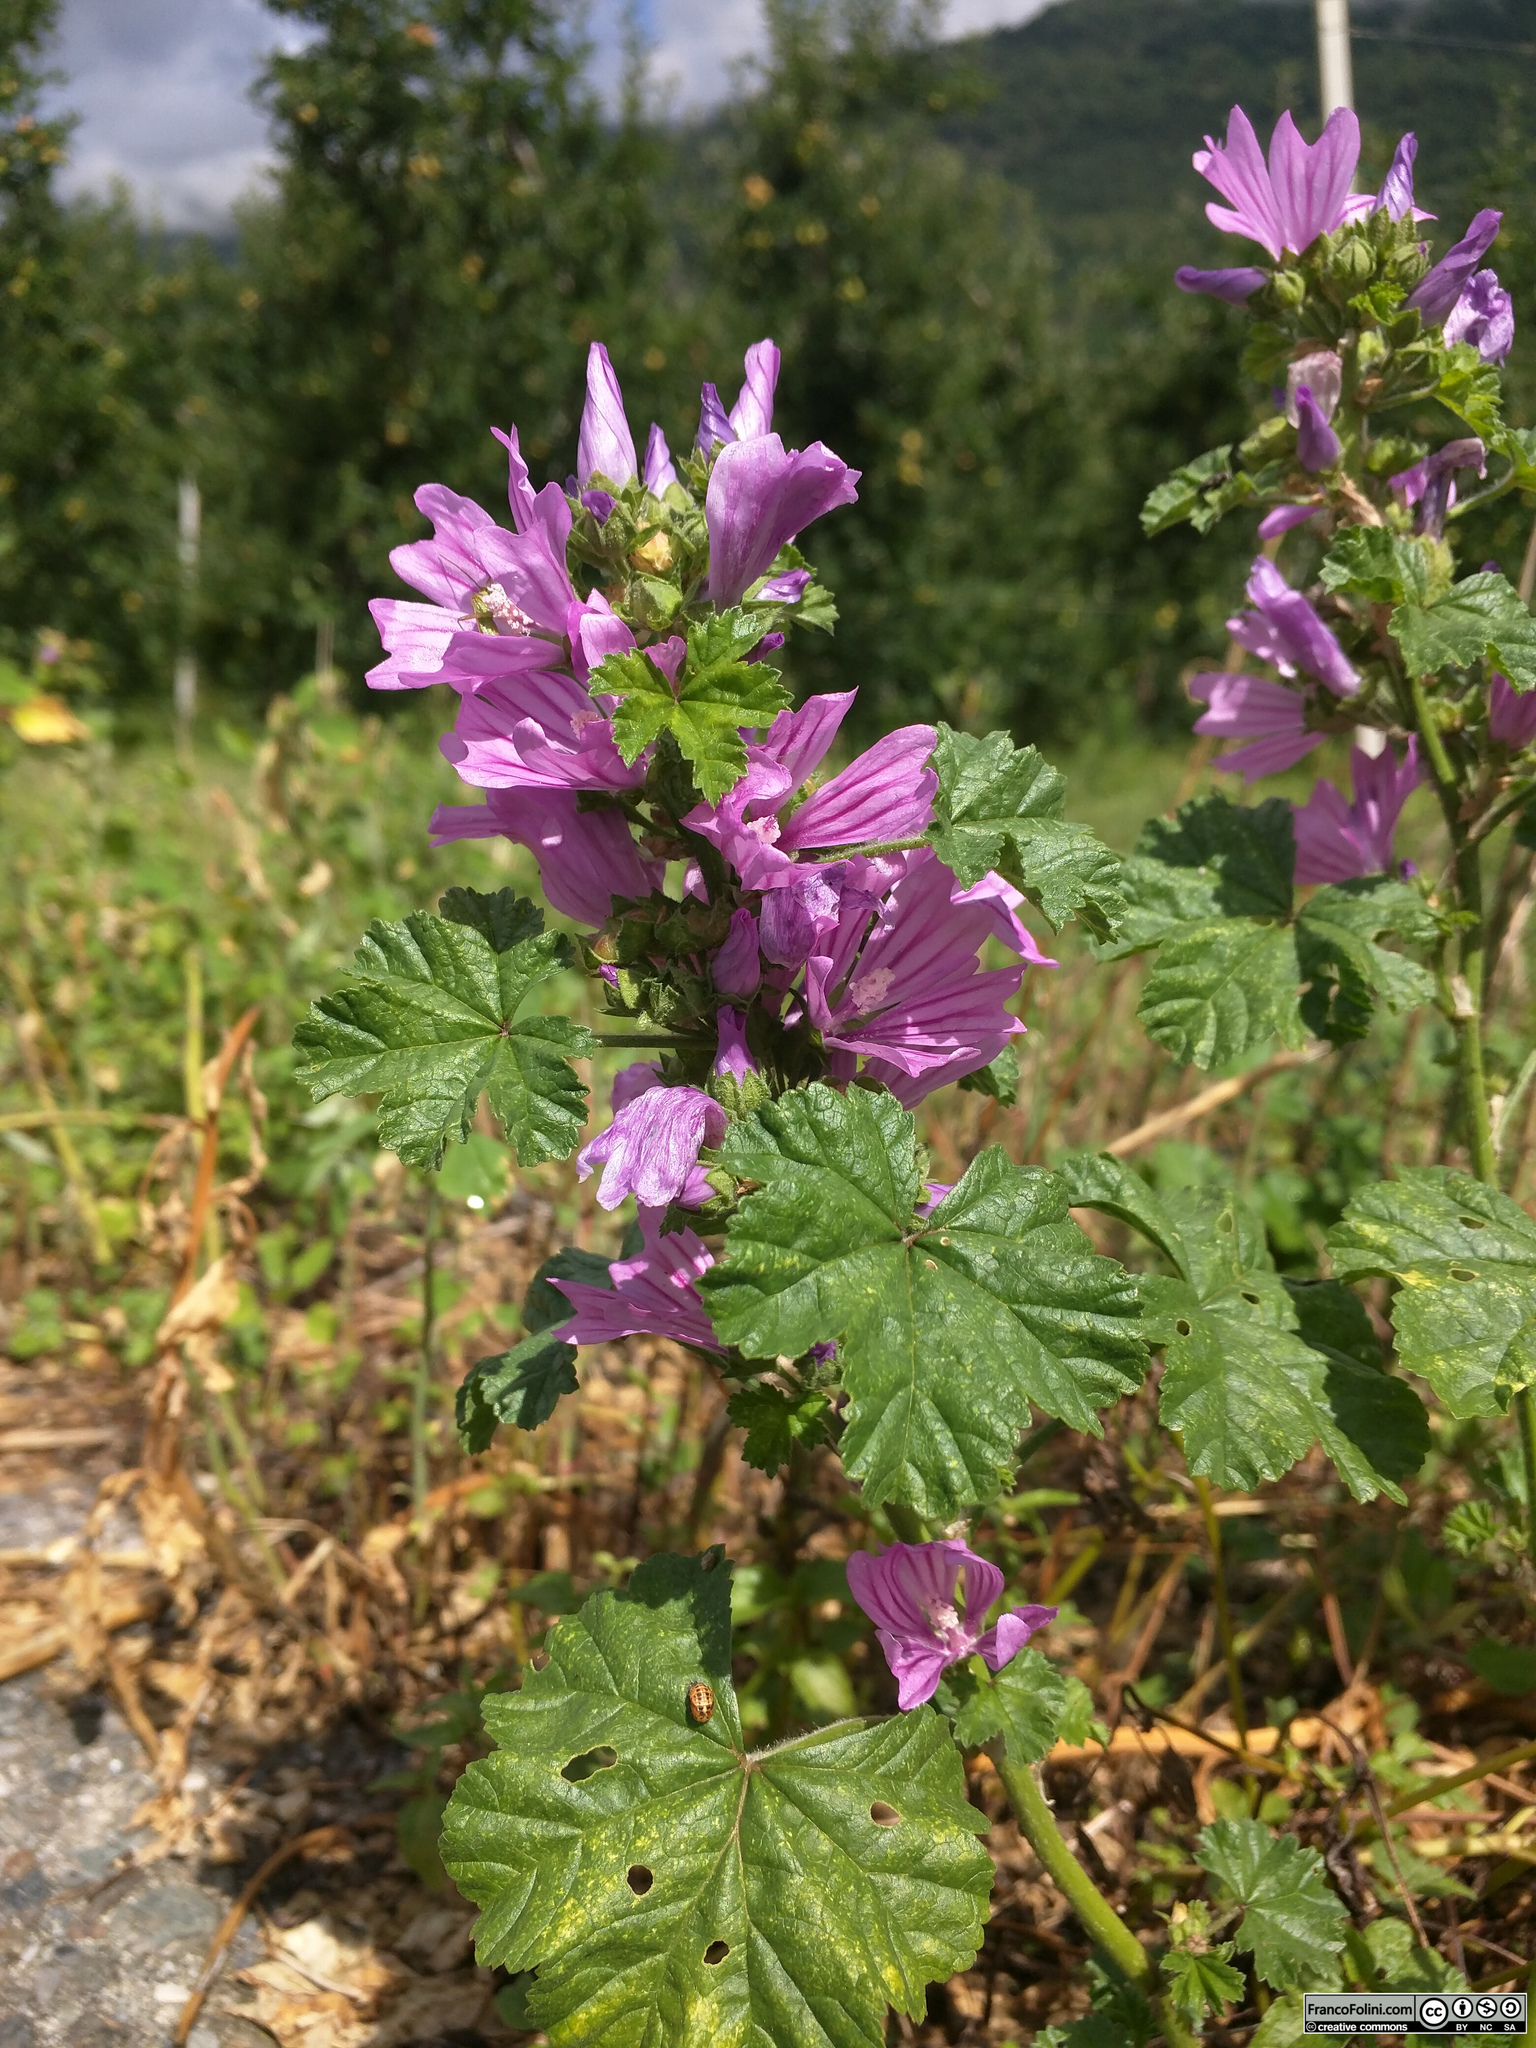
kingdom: Plantae
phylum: Tracheophyta
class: Magnoliopsida
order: Malvales
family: Malvaceae
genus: Malva
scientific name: Malva sylvestris
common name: Common mallow
